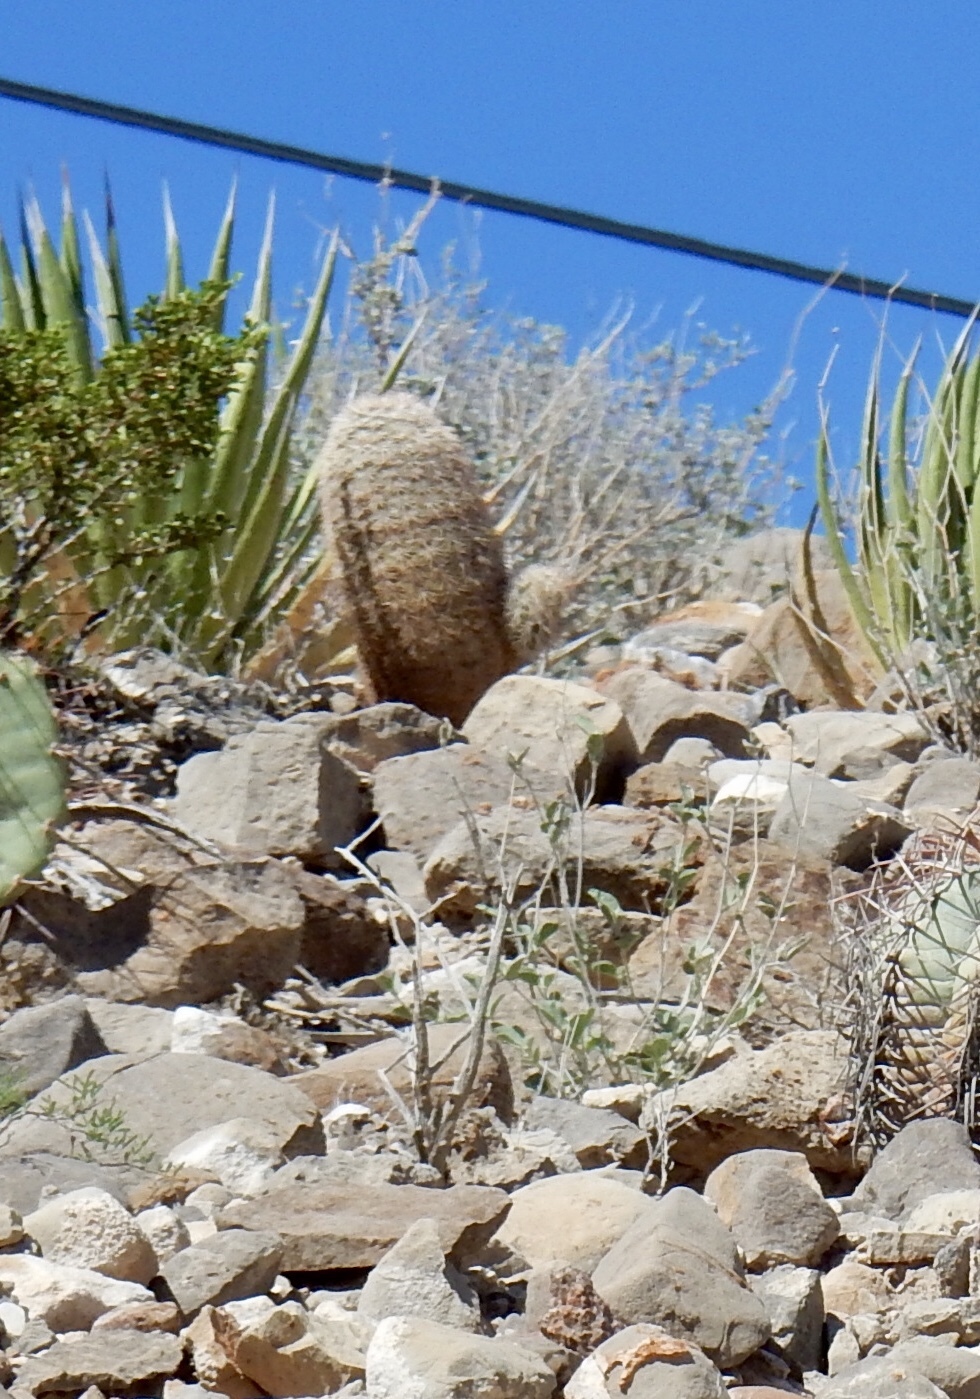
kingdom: Plantae
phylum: Tracheophyta
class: Magnoliopsida
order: Caryophyllales
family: Cactaceae
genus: Echinocereus
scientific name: Echinocereus dasyacanthus
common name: Spiny hedgehog cactus
